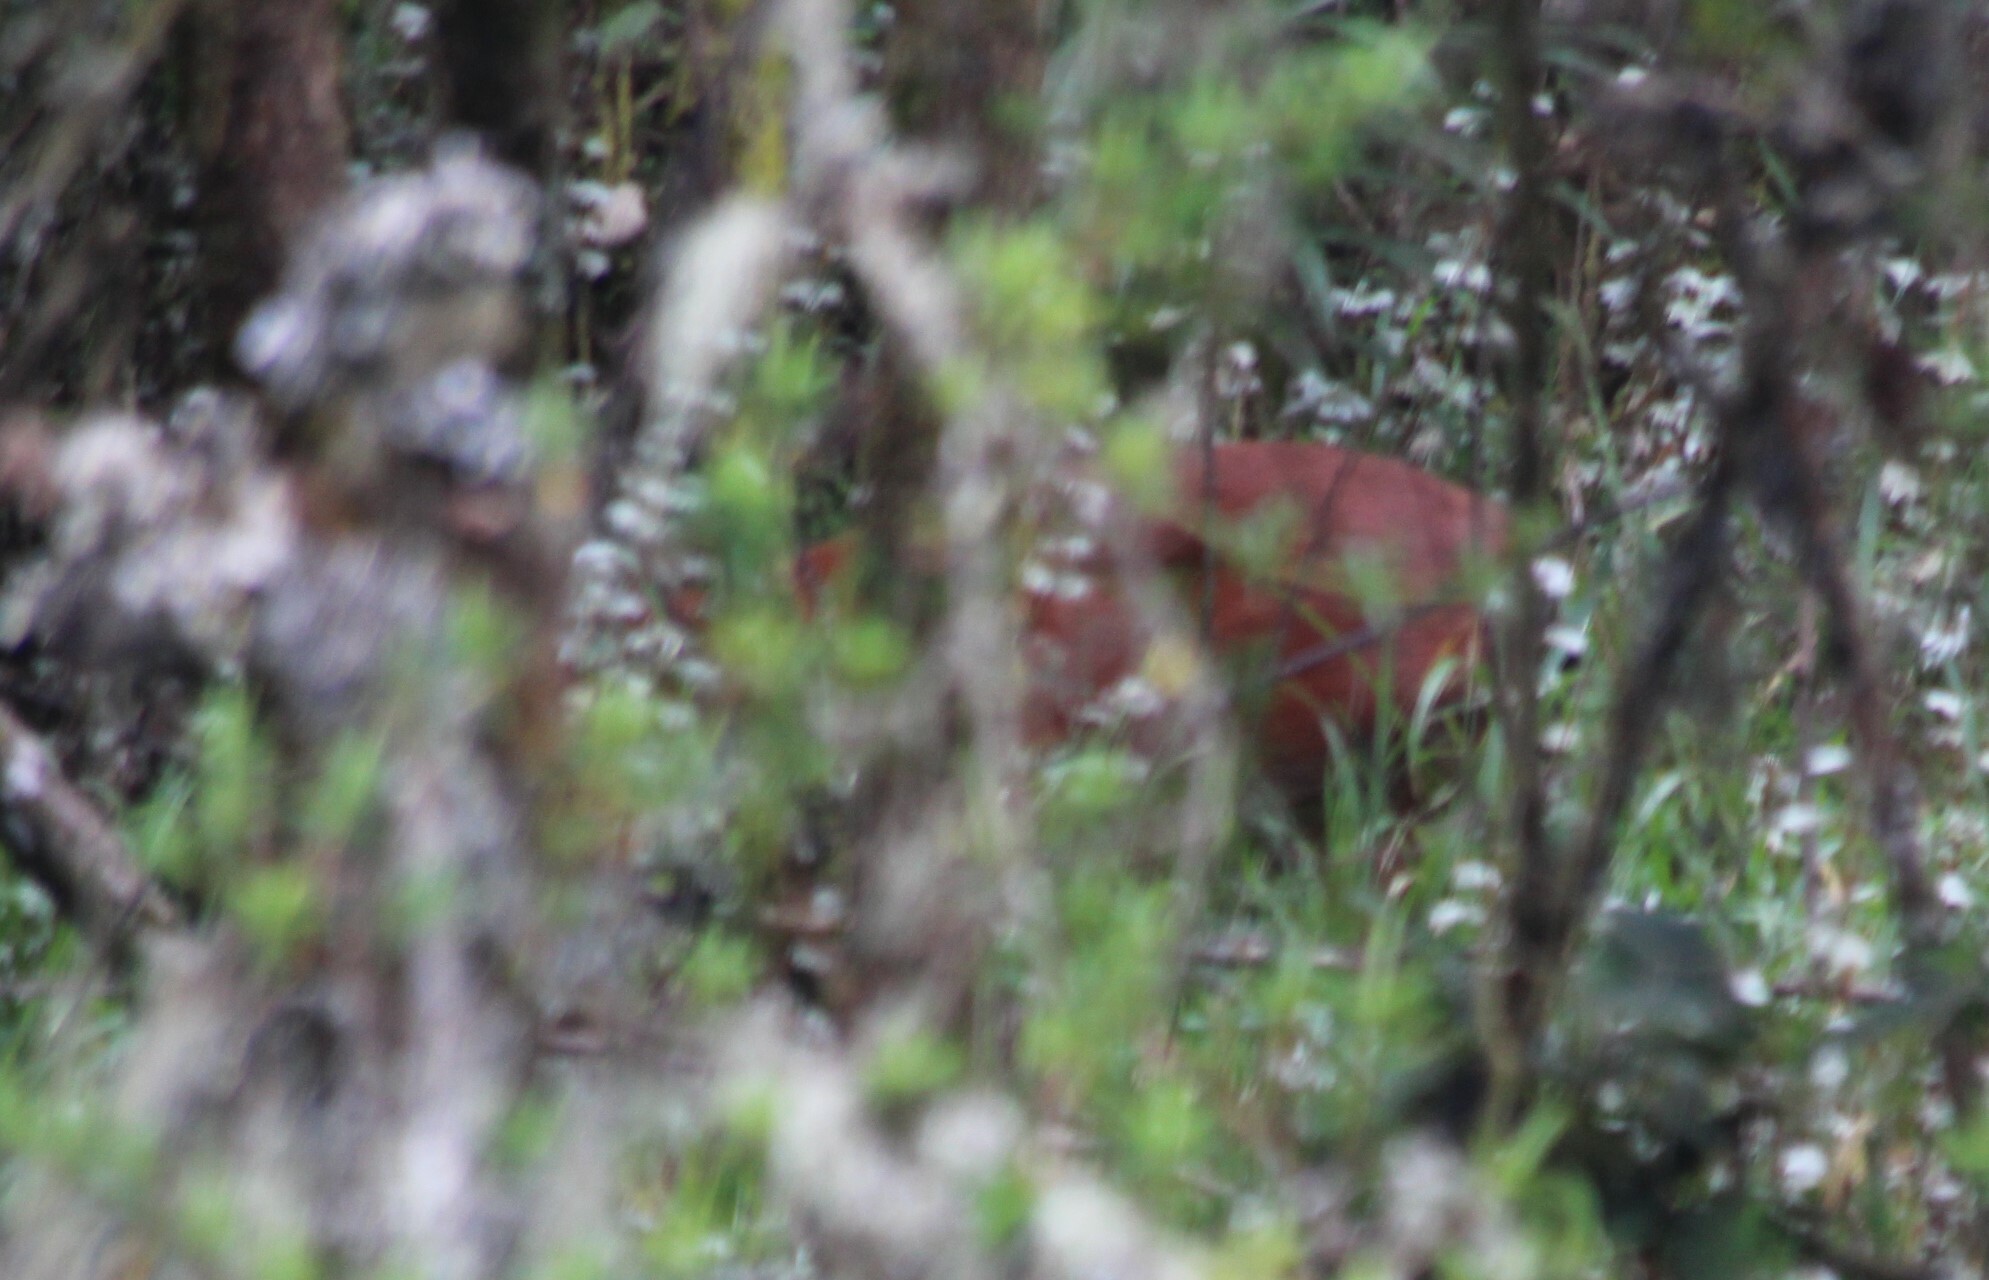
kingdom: Animalia
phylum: Chordata
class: Mammalia
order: Artiodactyla
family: Bovidae
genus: Cephalophus
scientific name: Cephalophus nigrifrons
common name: Black-fronted duiker
